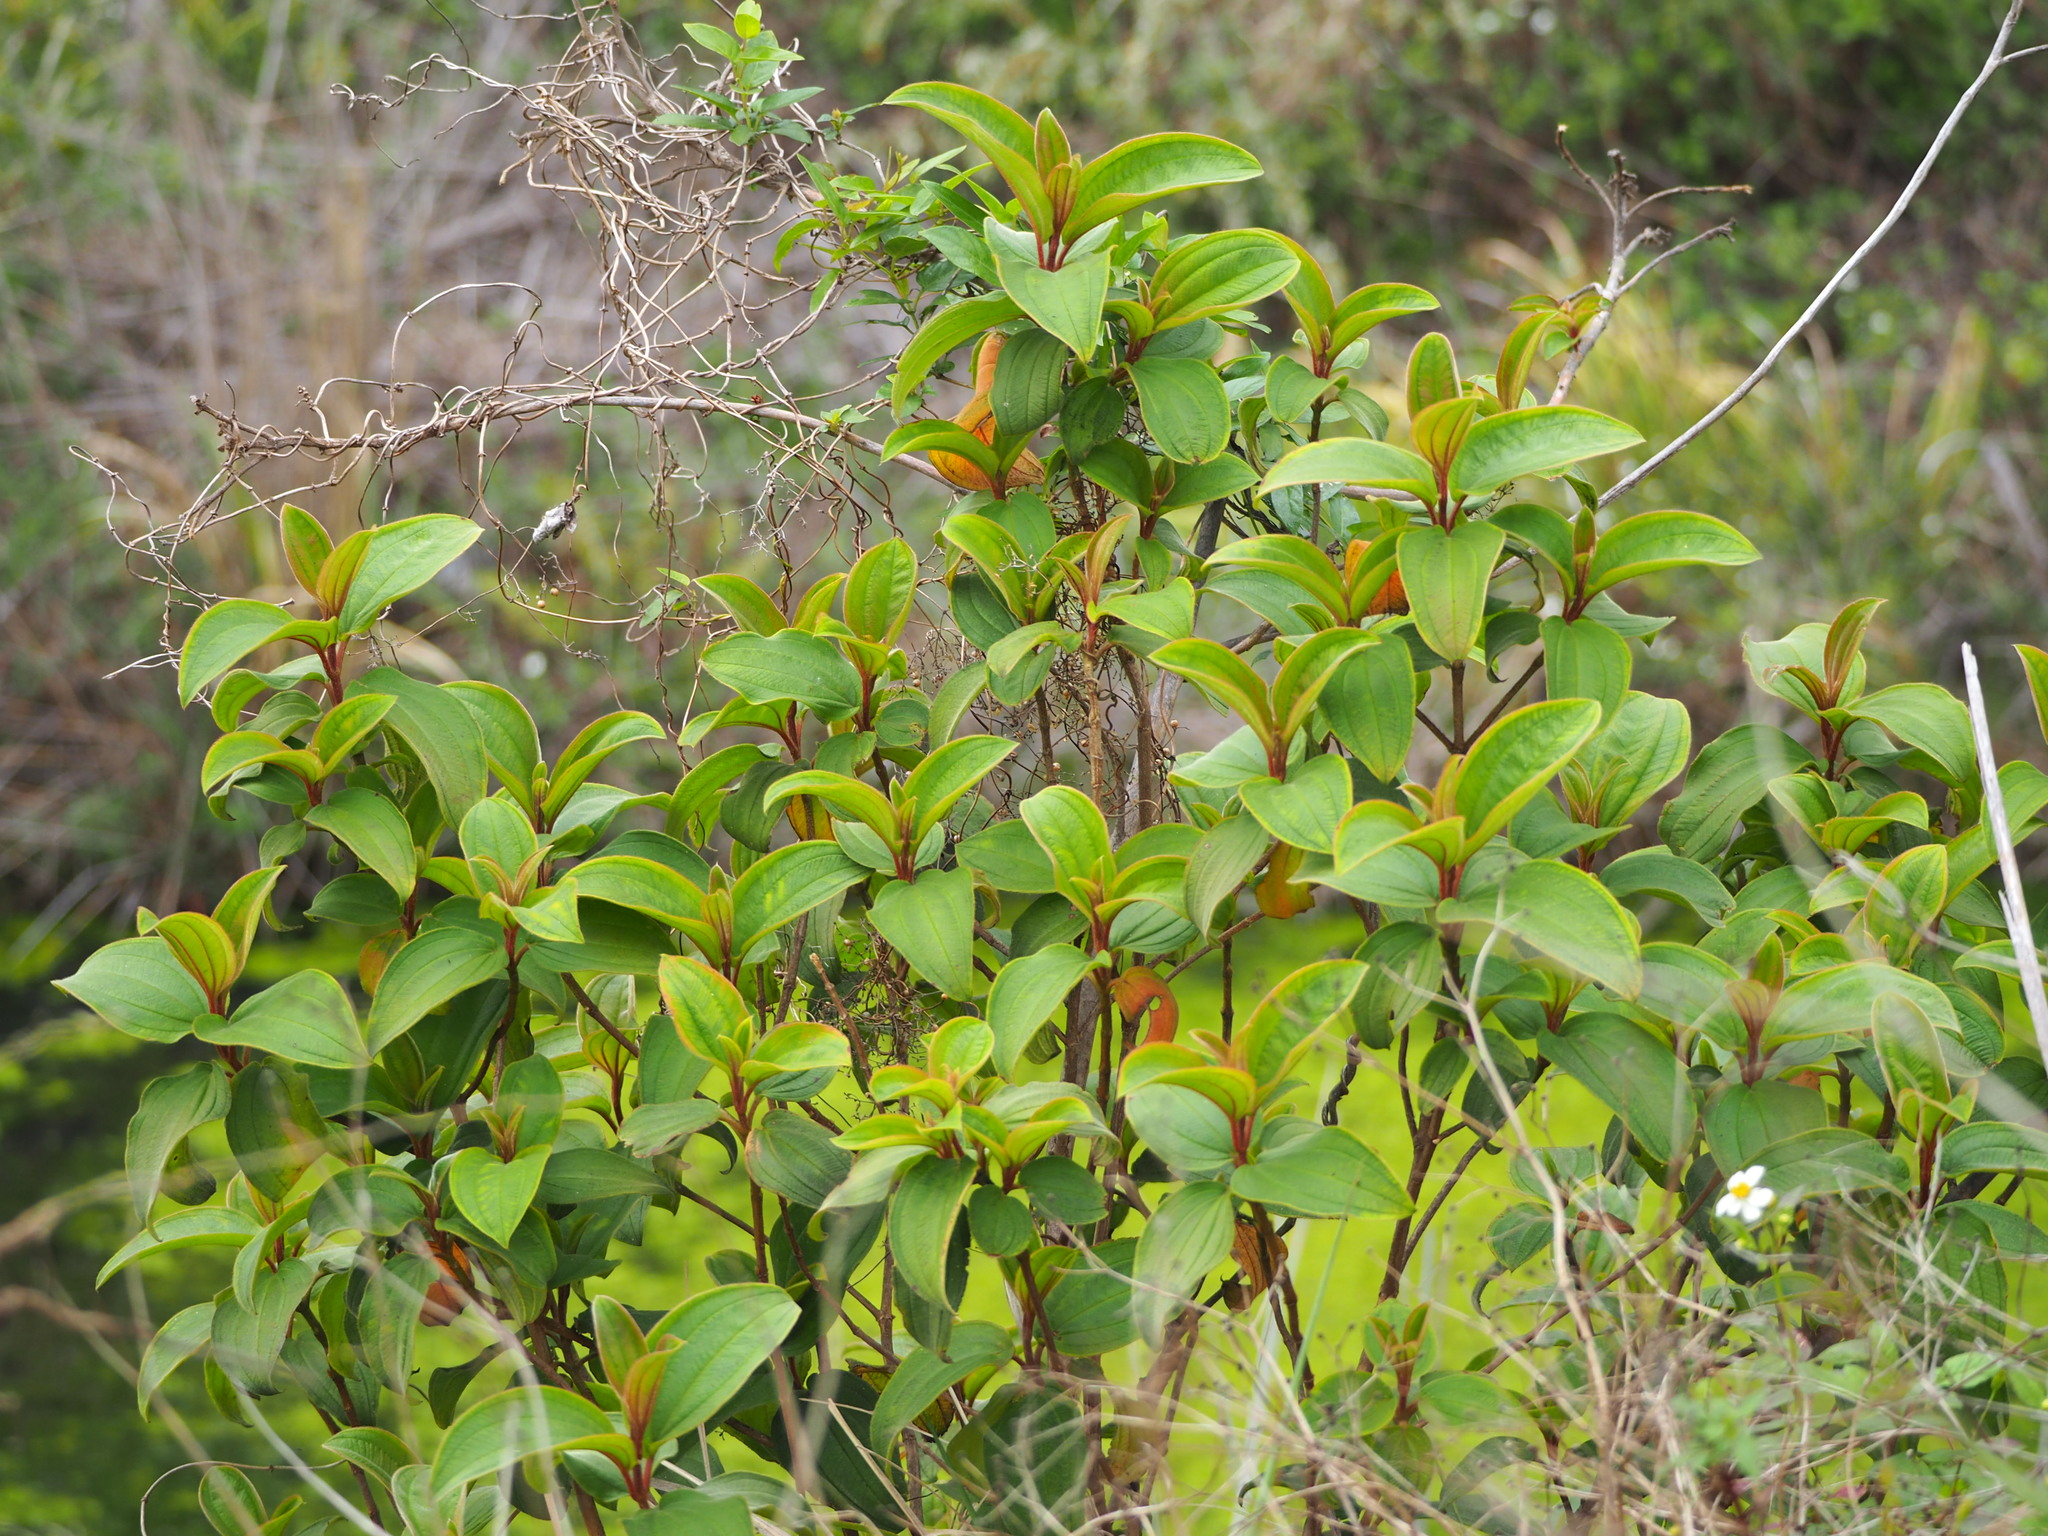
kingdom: Plantae
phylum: Tracheophyta
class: Magnoliopsida
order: Myrtales
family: Melastomataceae
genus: Melastoma
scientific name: Melastoma malabathricum
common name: Indian-rhododendron
